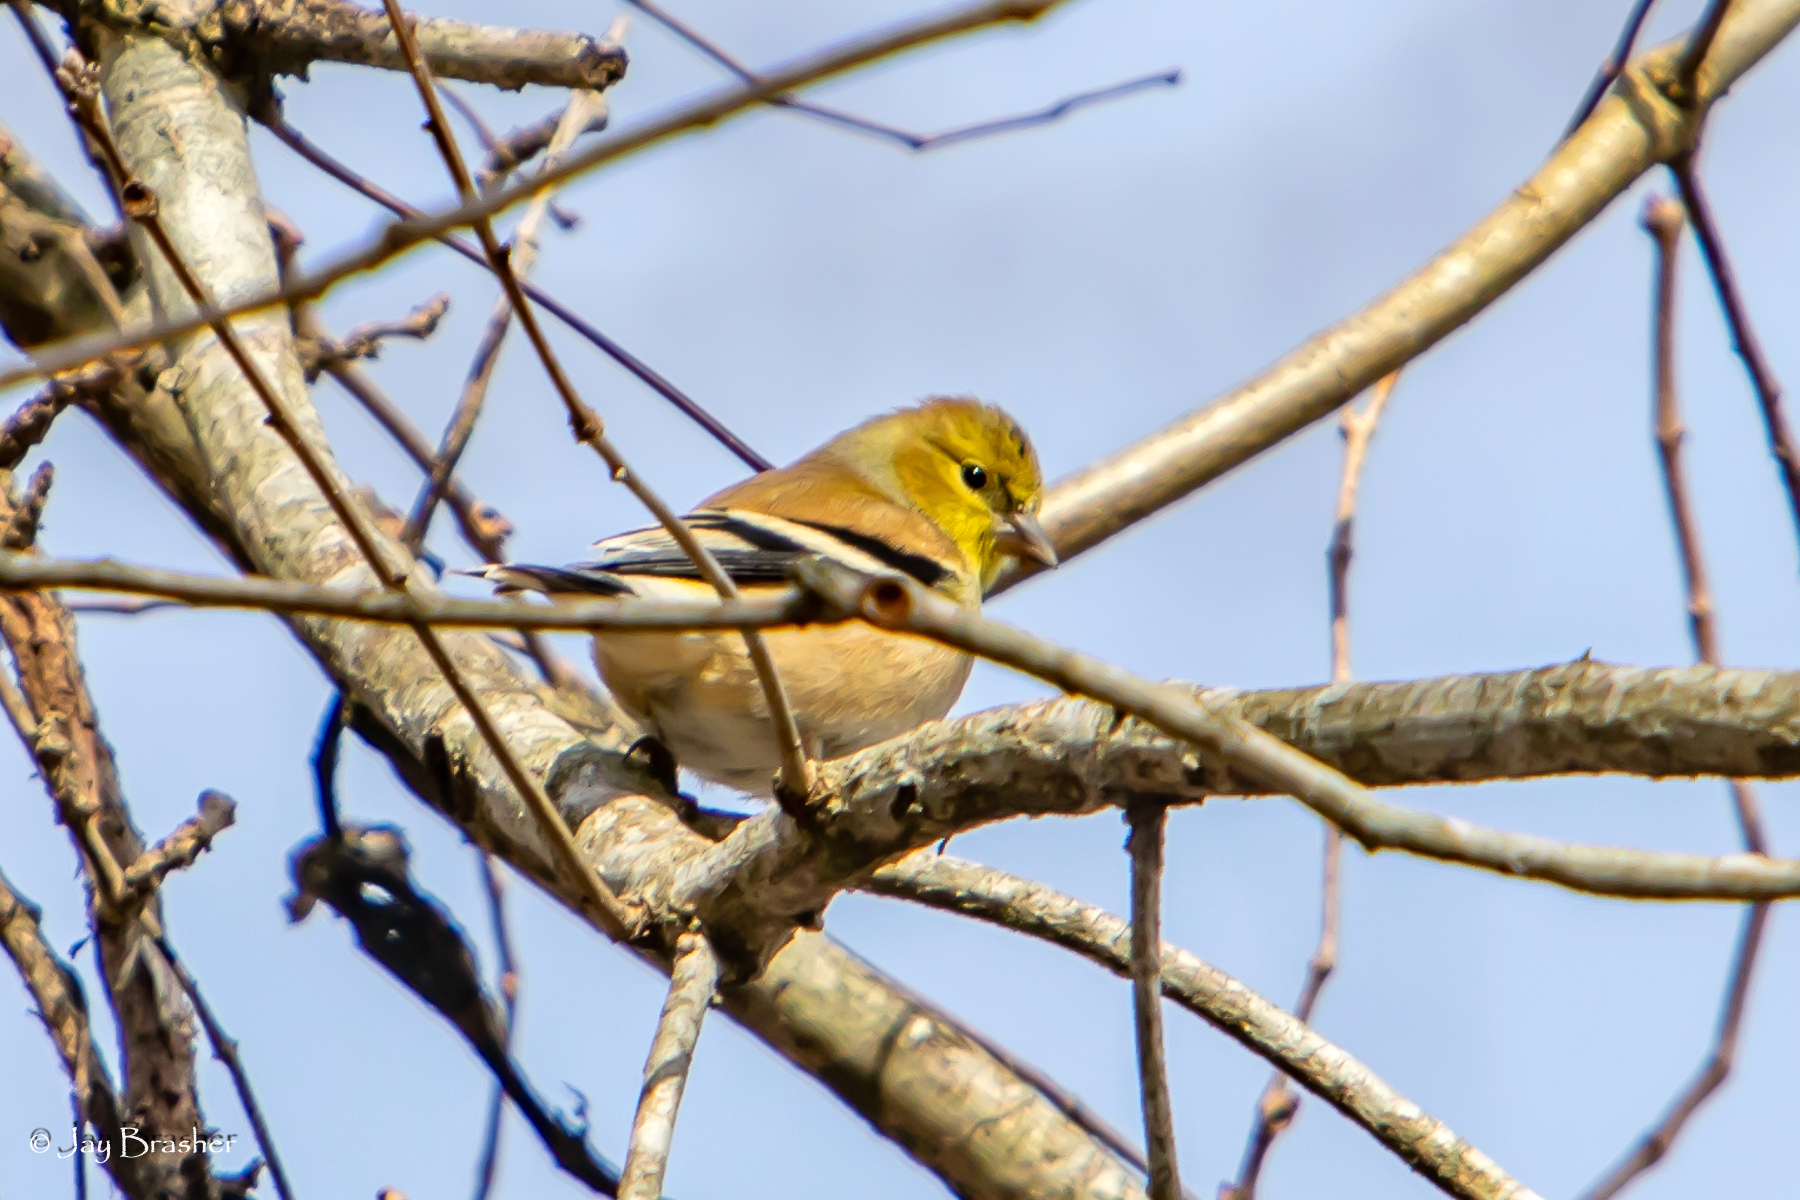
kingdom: Animalia
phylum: Chordata
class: Aves
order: Passeriformes
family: Fringillidae
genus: Spinus
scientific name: Spinus tristis
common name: American goldfinch
